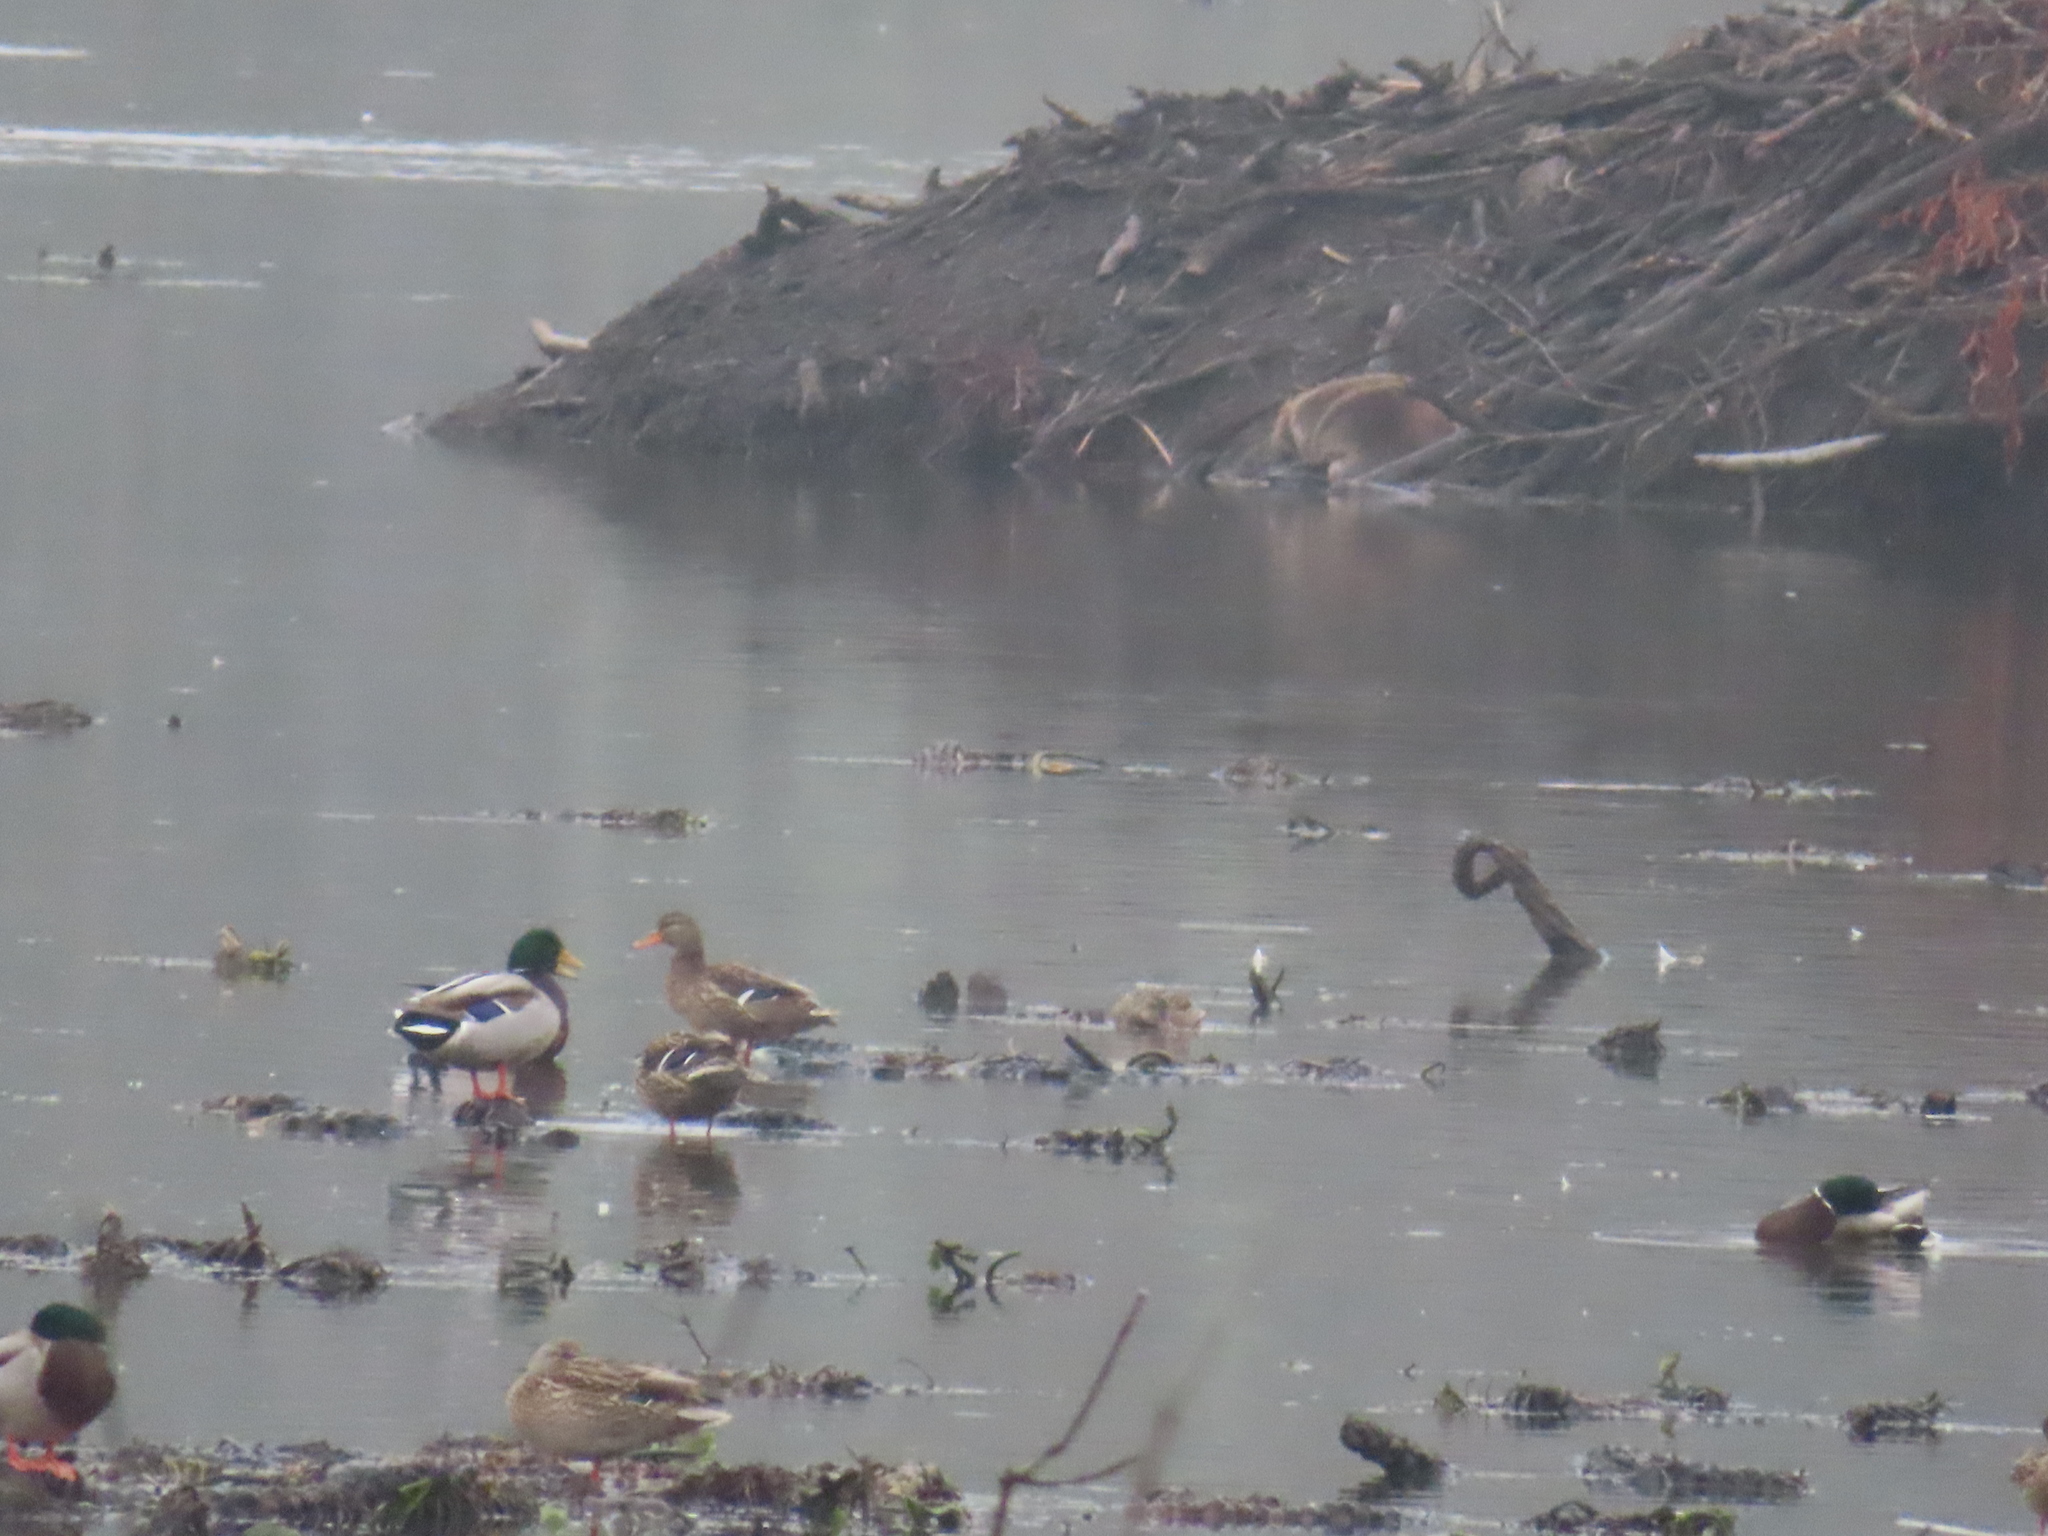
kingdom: Animalia
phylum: Chordata
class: Aves
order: Anseriformes
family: Anatidae
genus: Anas
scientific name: Anas platyrhynchos
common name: Mallard
